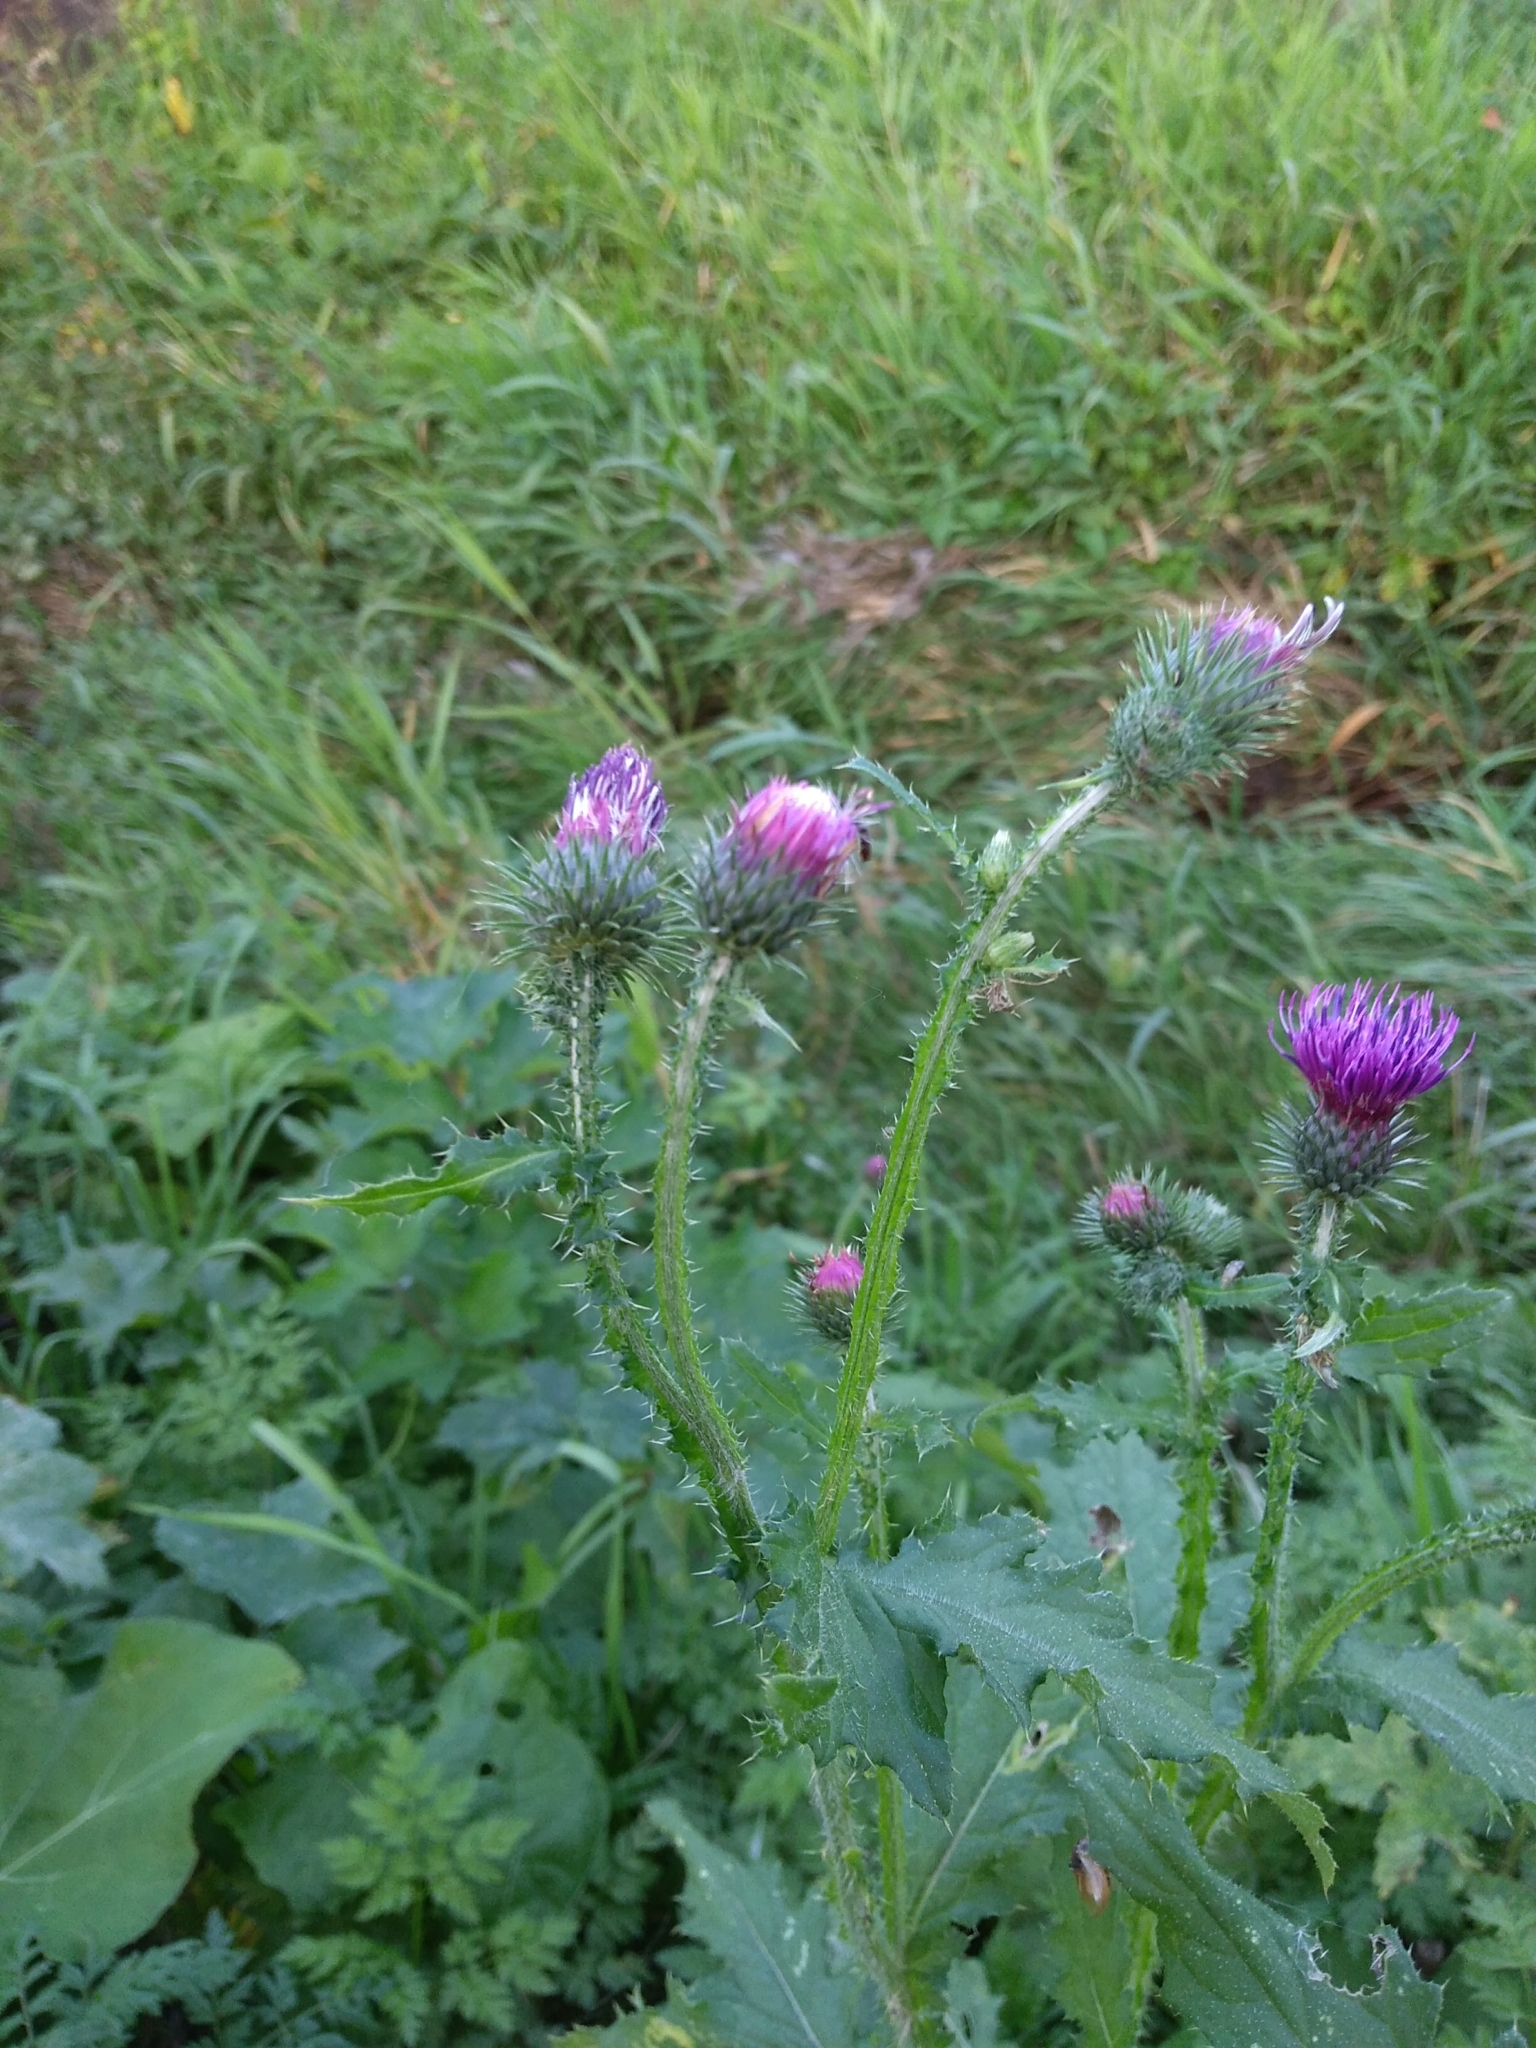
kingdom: Plantae
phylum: Tracheophyta
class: Magnoliopsida
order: Asterales
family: Asteraceae
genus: Carduus
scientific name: Carduus crispus
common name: Welted thistle
